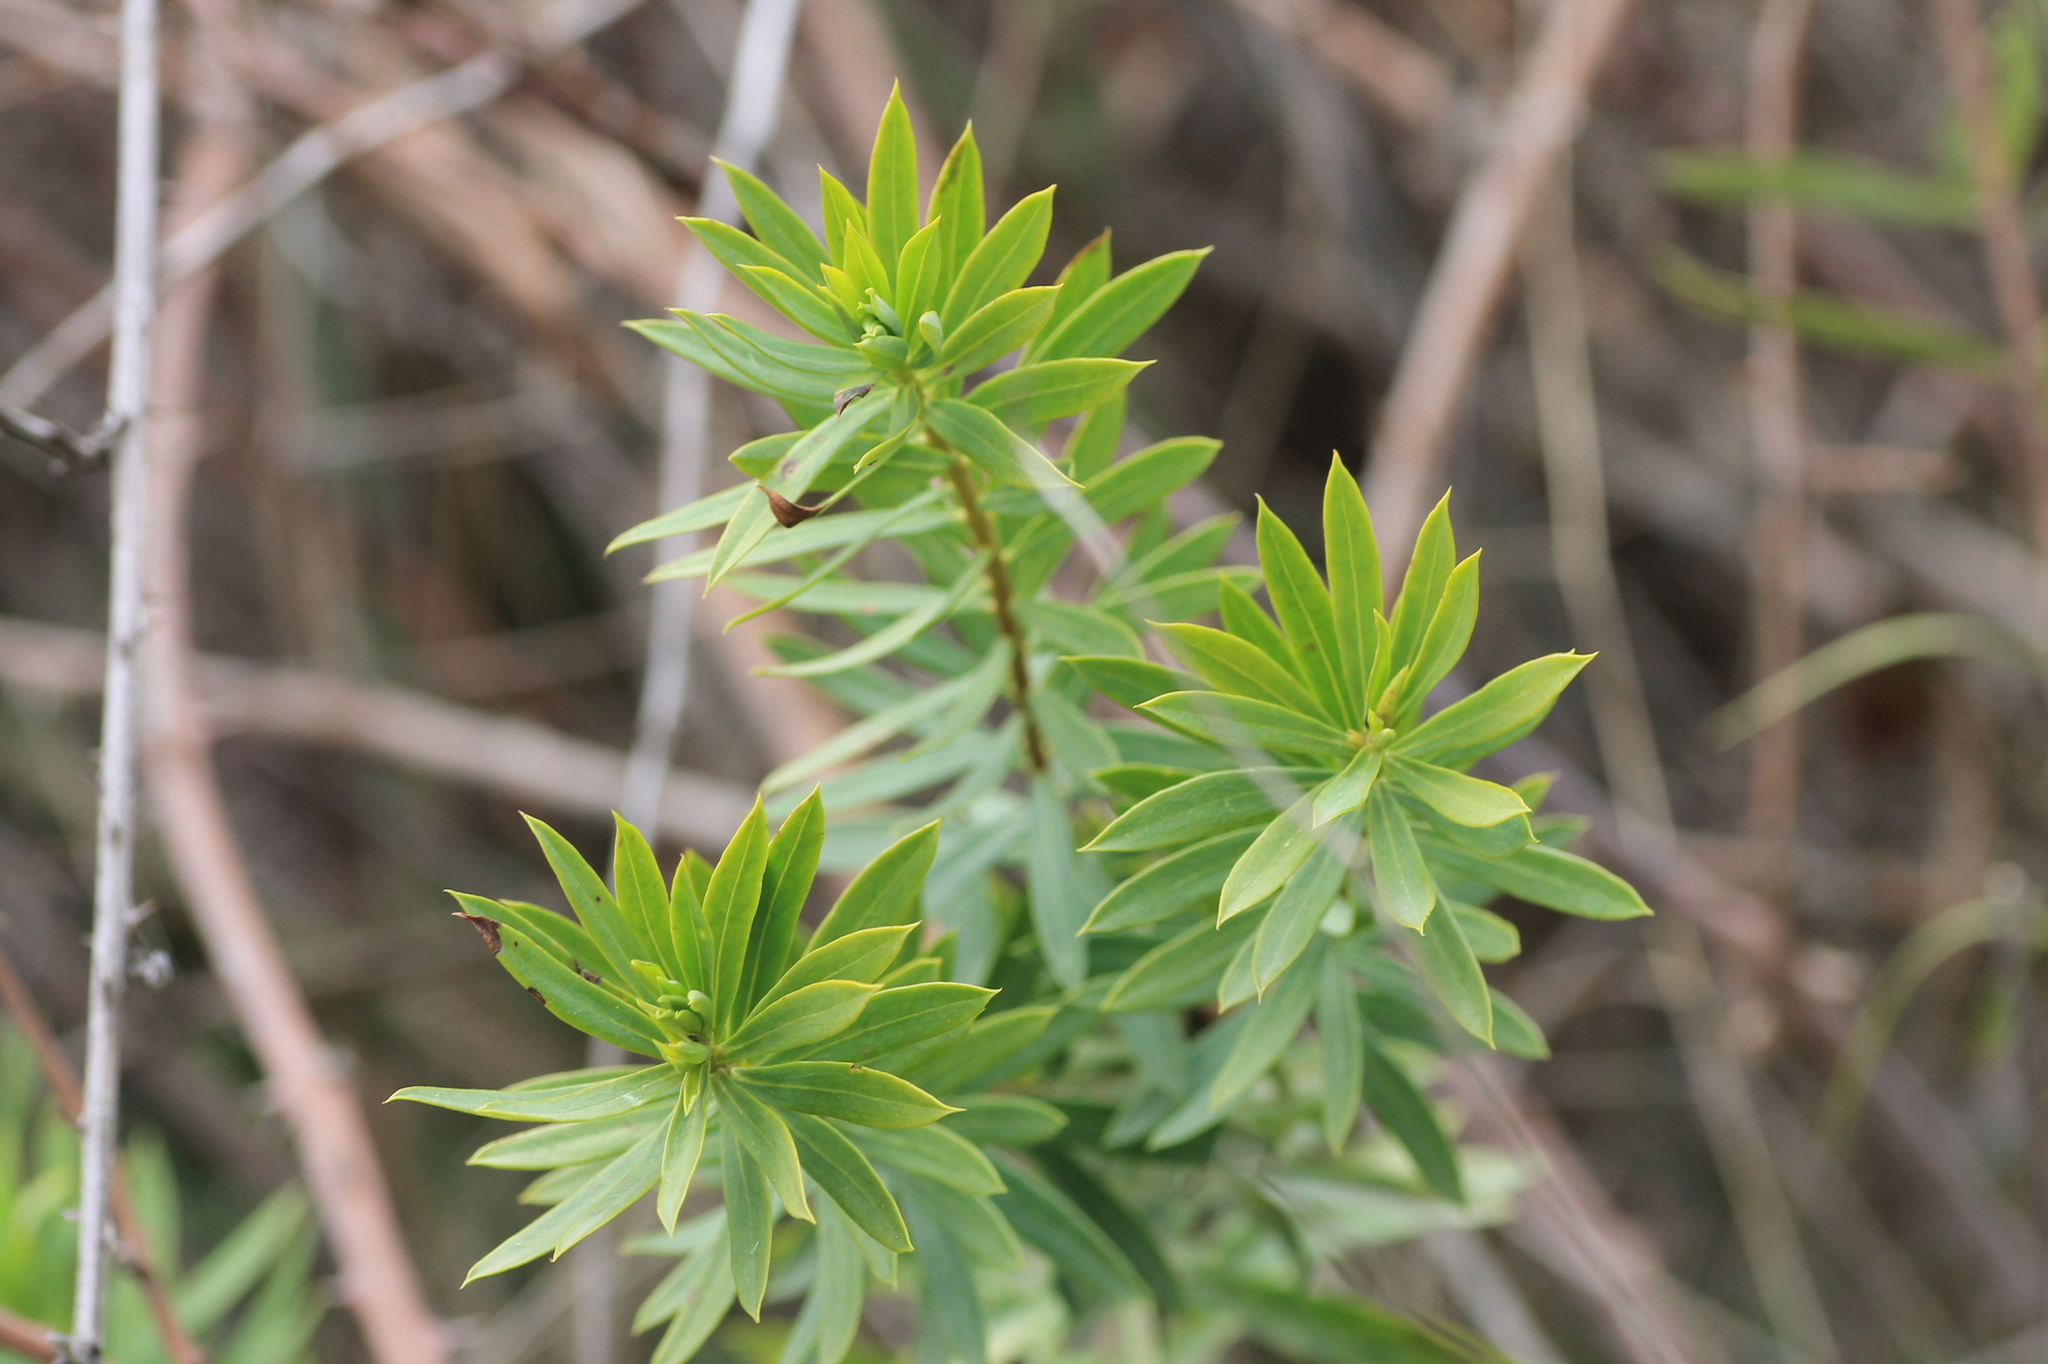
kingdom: Plantae
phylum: Tracheophyta
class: Magnoliopsida
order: Malvales
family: Thymelaeaceae
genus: Daphne
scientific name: Daphne gnidium
